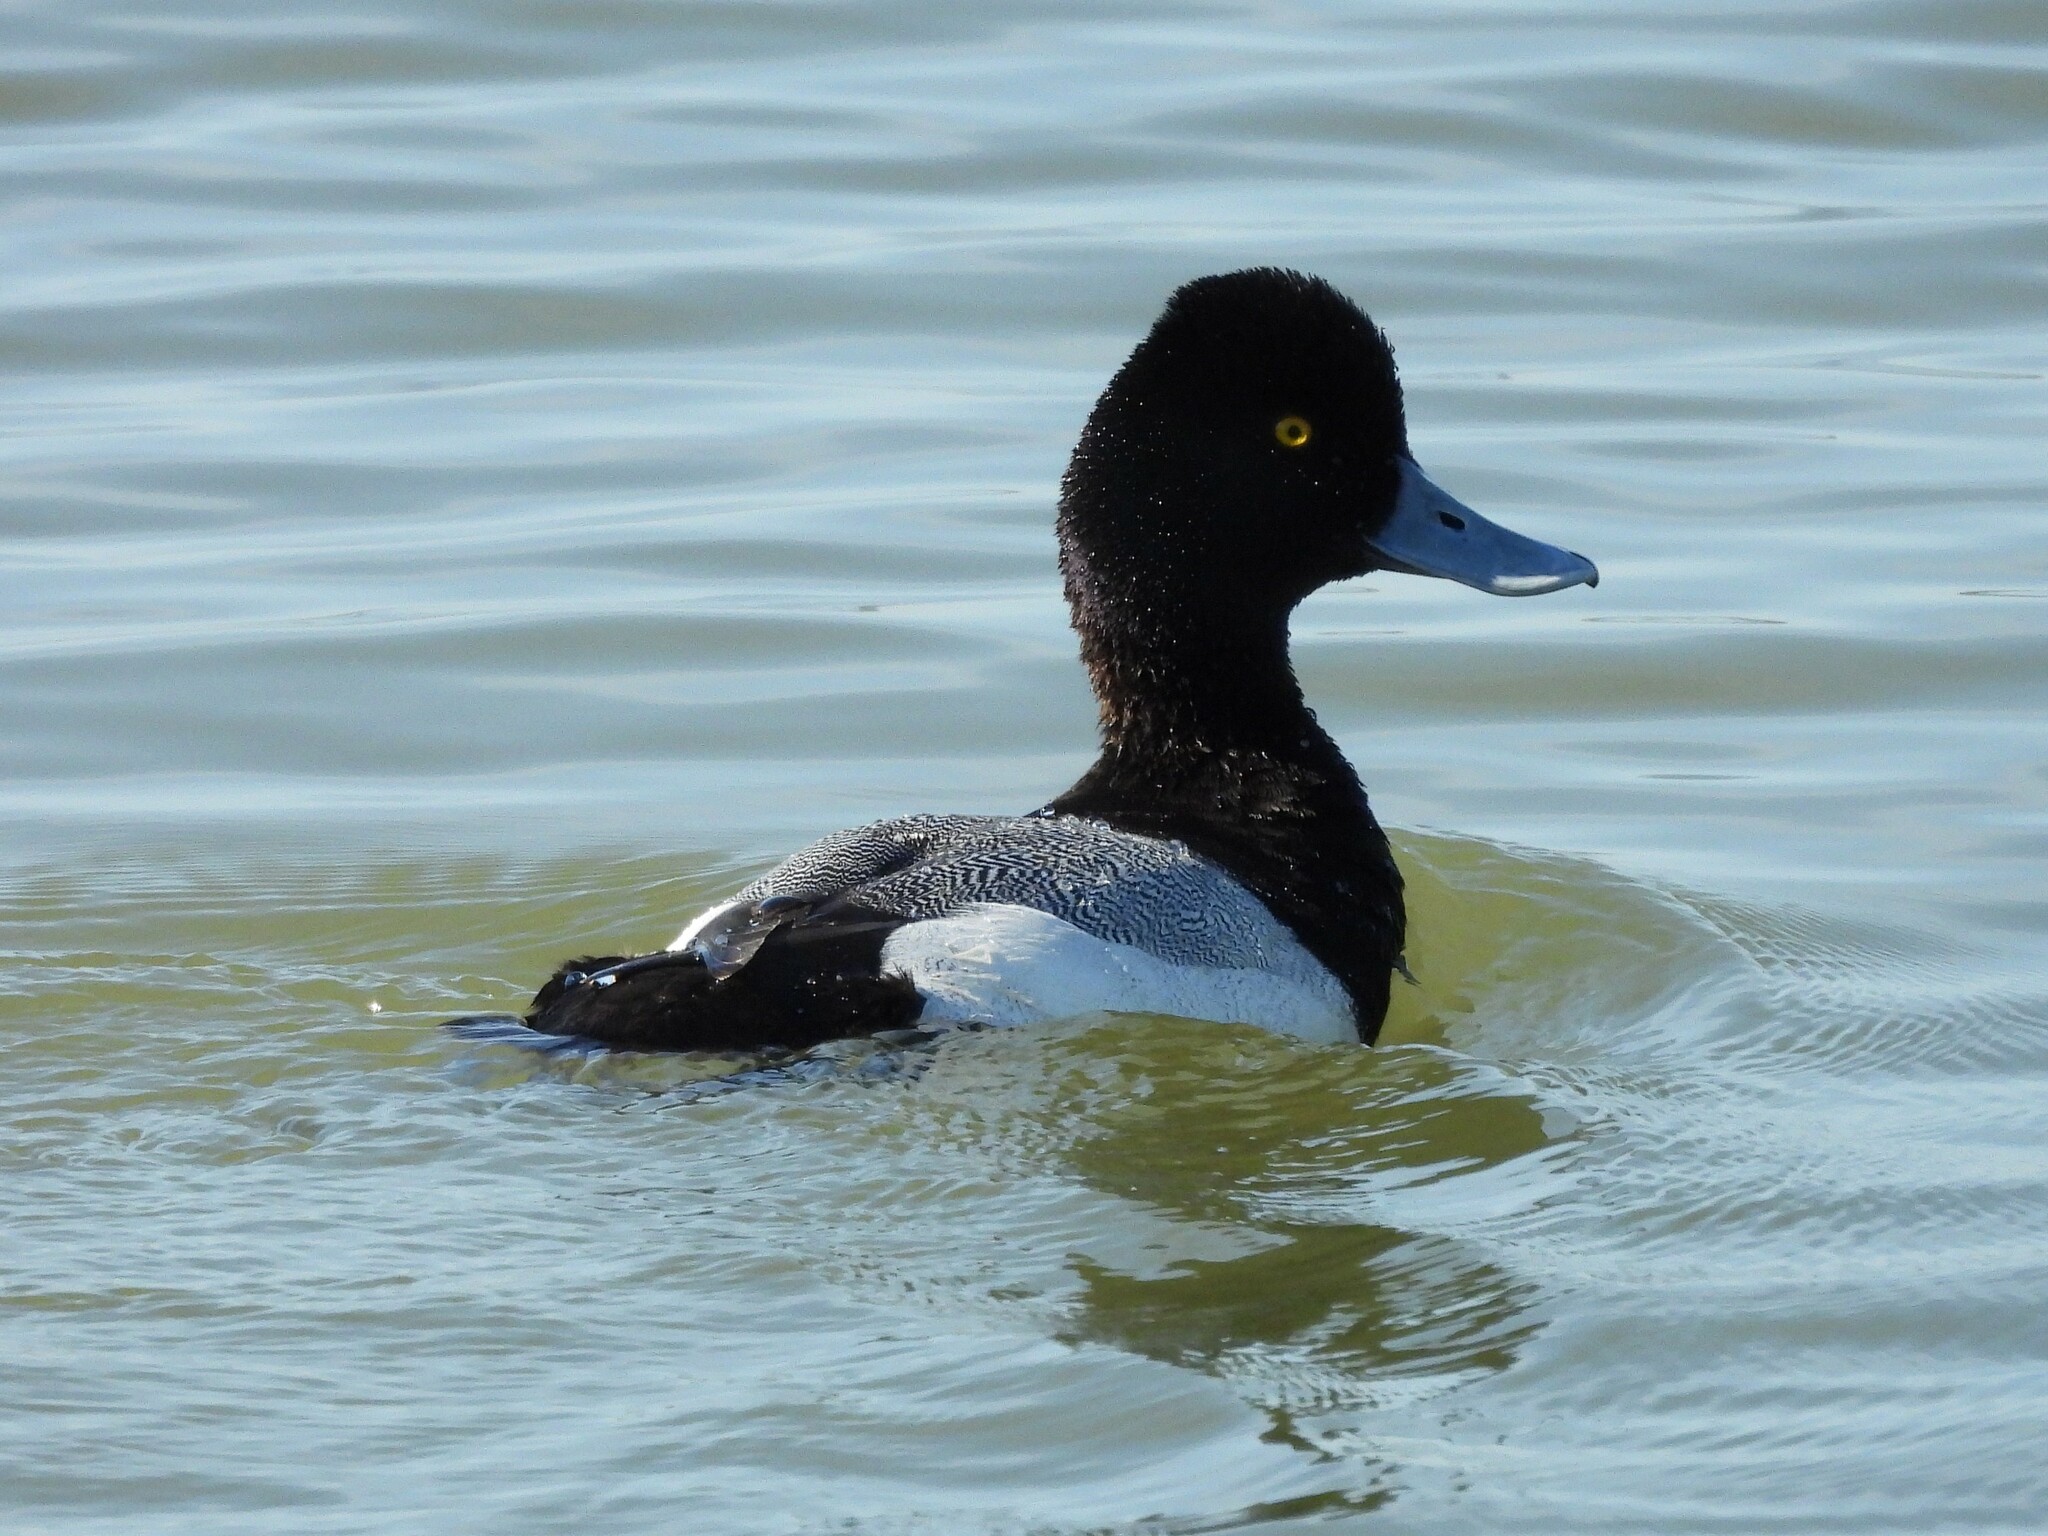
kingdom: Animalia
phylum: Chordata
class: Aves
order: Anseriformes
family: Anatidae
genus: Aythya
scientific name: Aythya affinis
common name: Lesser scaup
